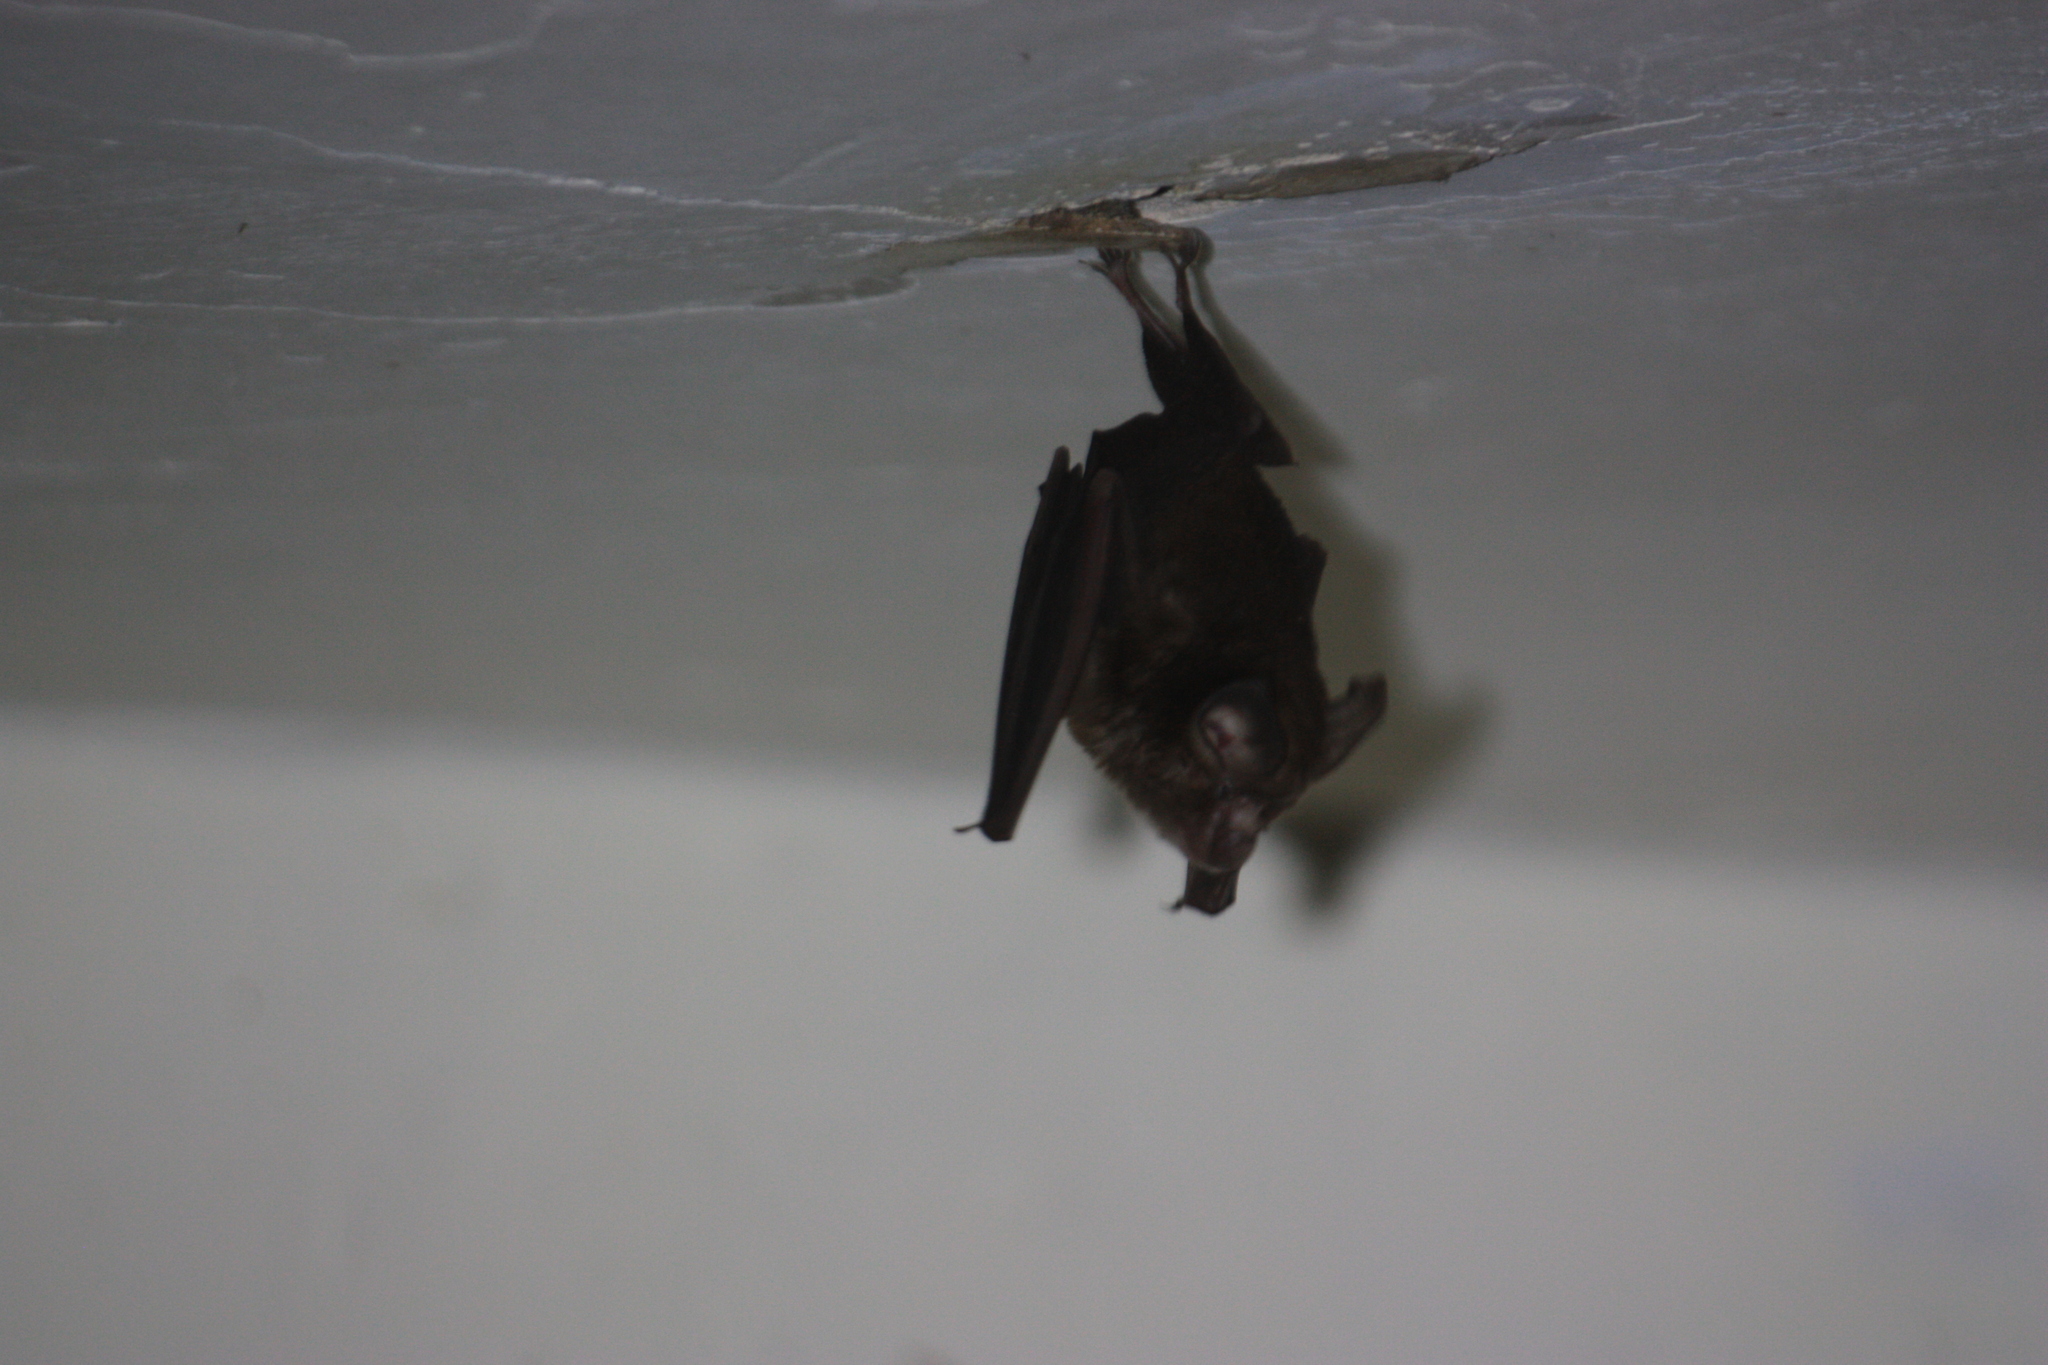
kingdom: Animalia
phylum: Chordata
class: Mammalia
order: Chiroptera
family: Rhinolophidae
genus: Rhinolophus
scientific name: Rhinolophus monoceros
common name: Formosan lesser horseshoe bat
